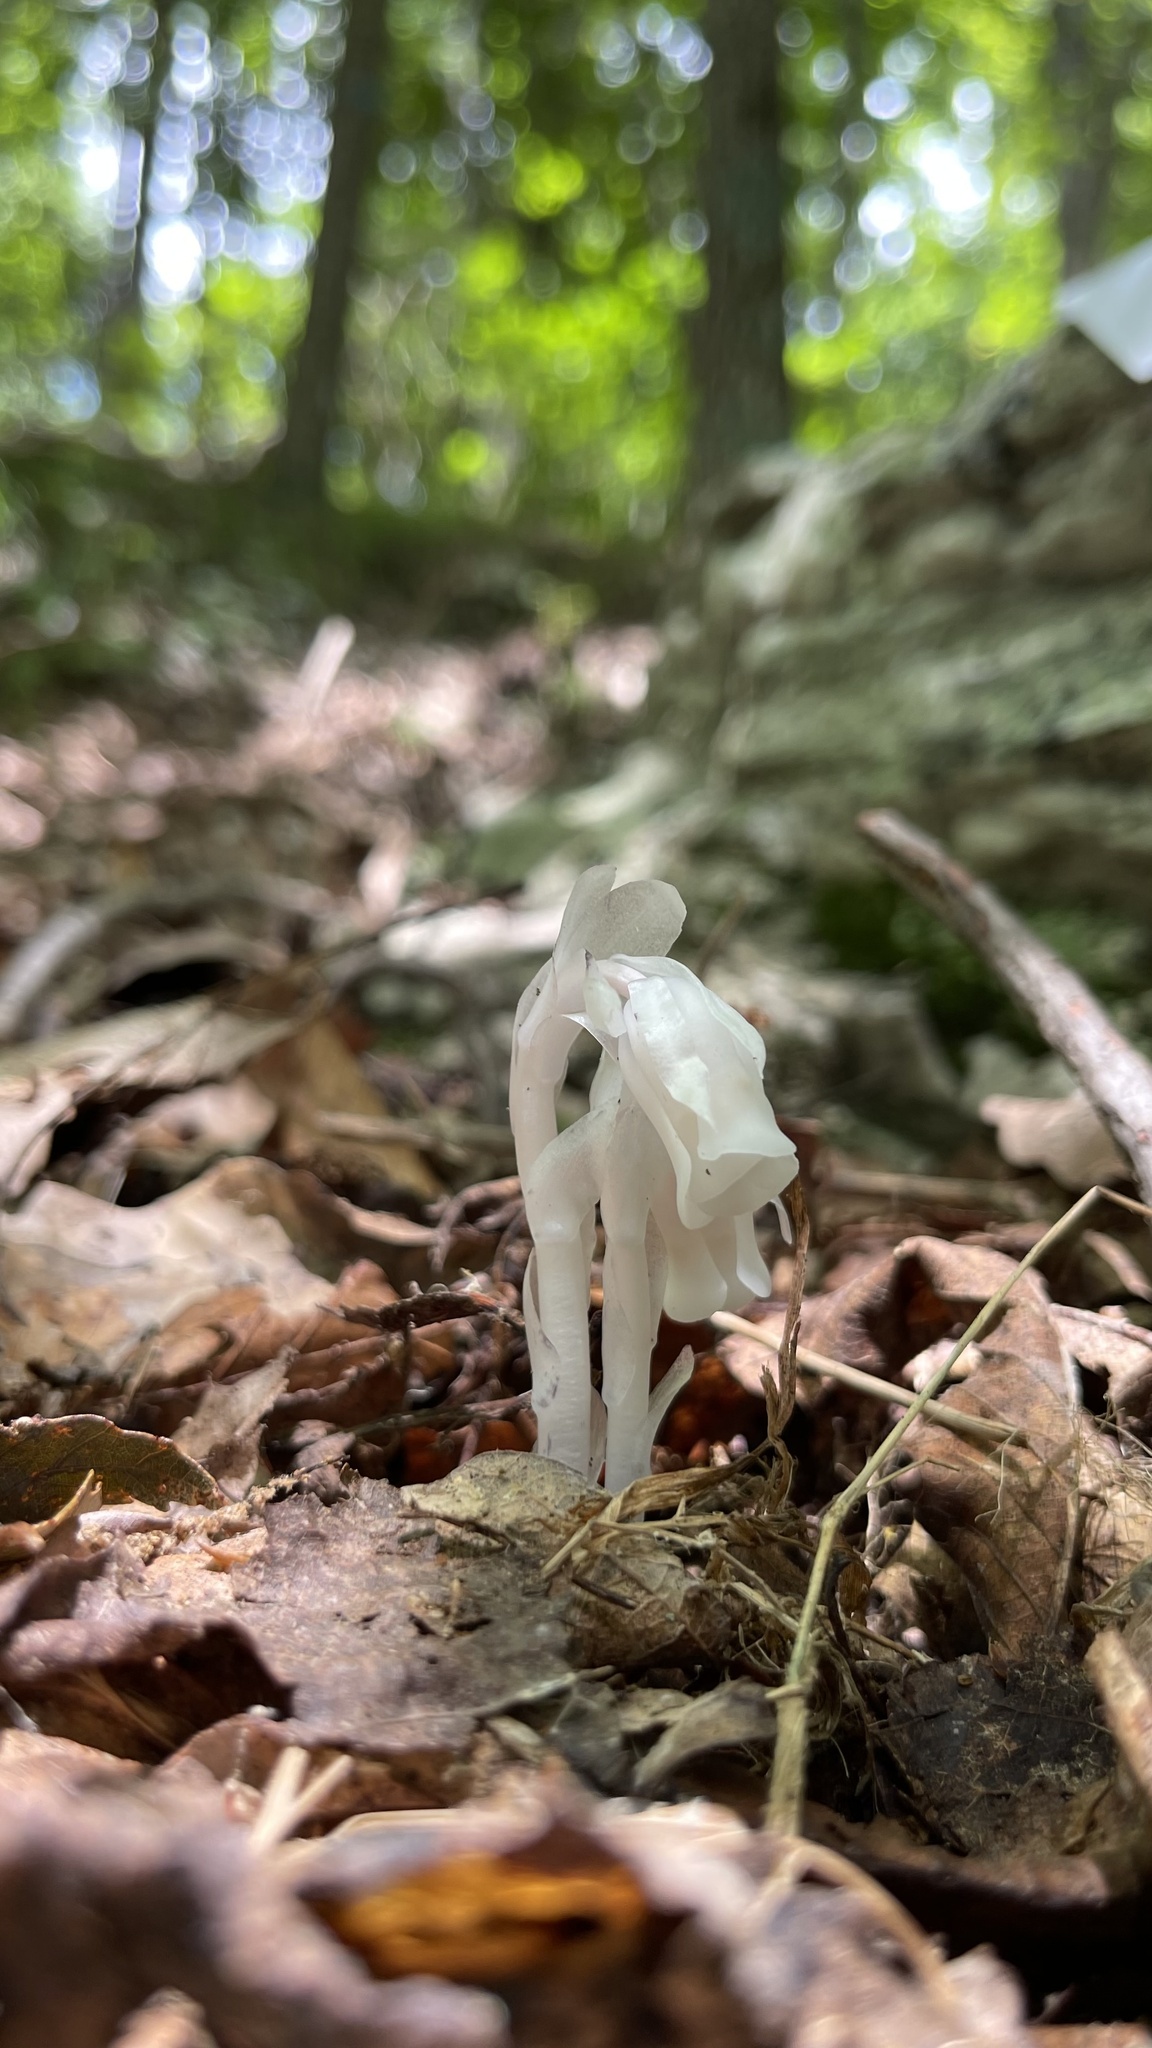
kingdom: Plantae
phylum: Tracheophyta
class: Magnoliopsida
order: Ericales
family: Ericaceae
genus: Monotropa
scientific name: Monotropa uniflora
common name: Convulsion root
